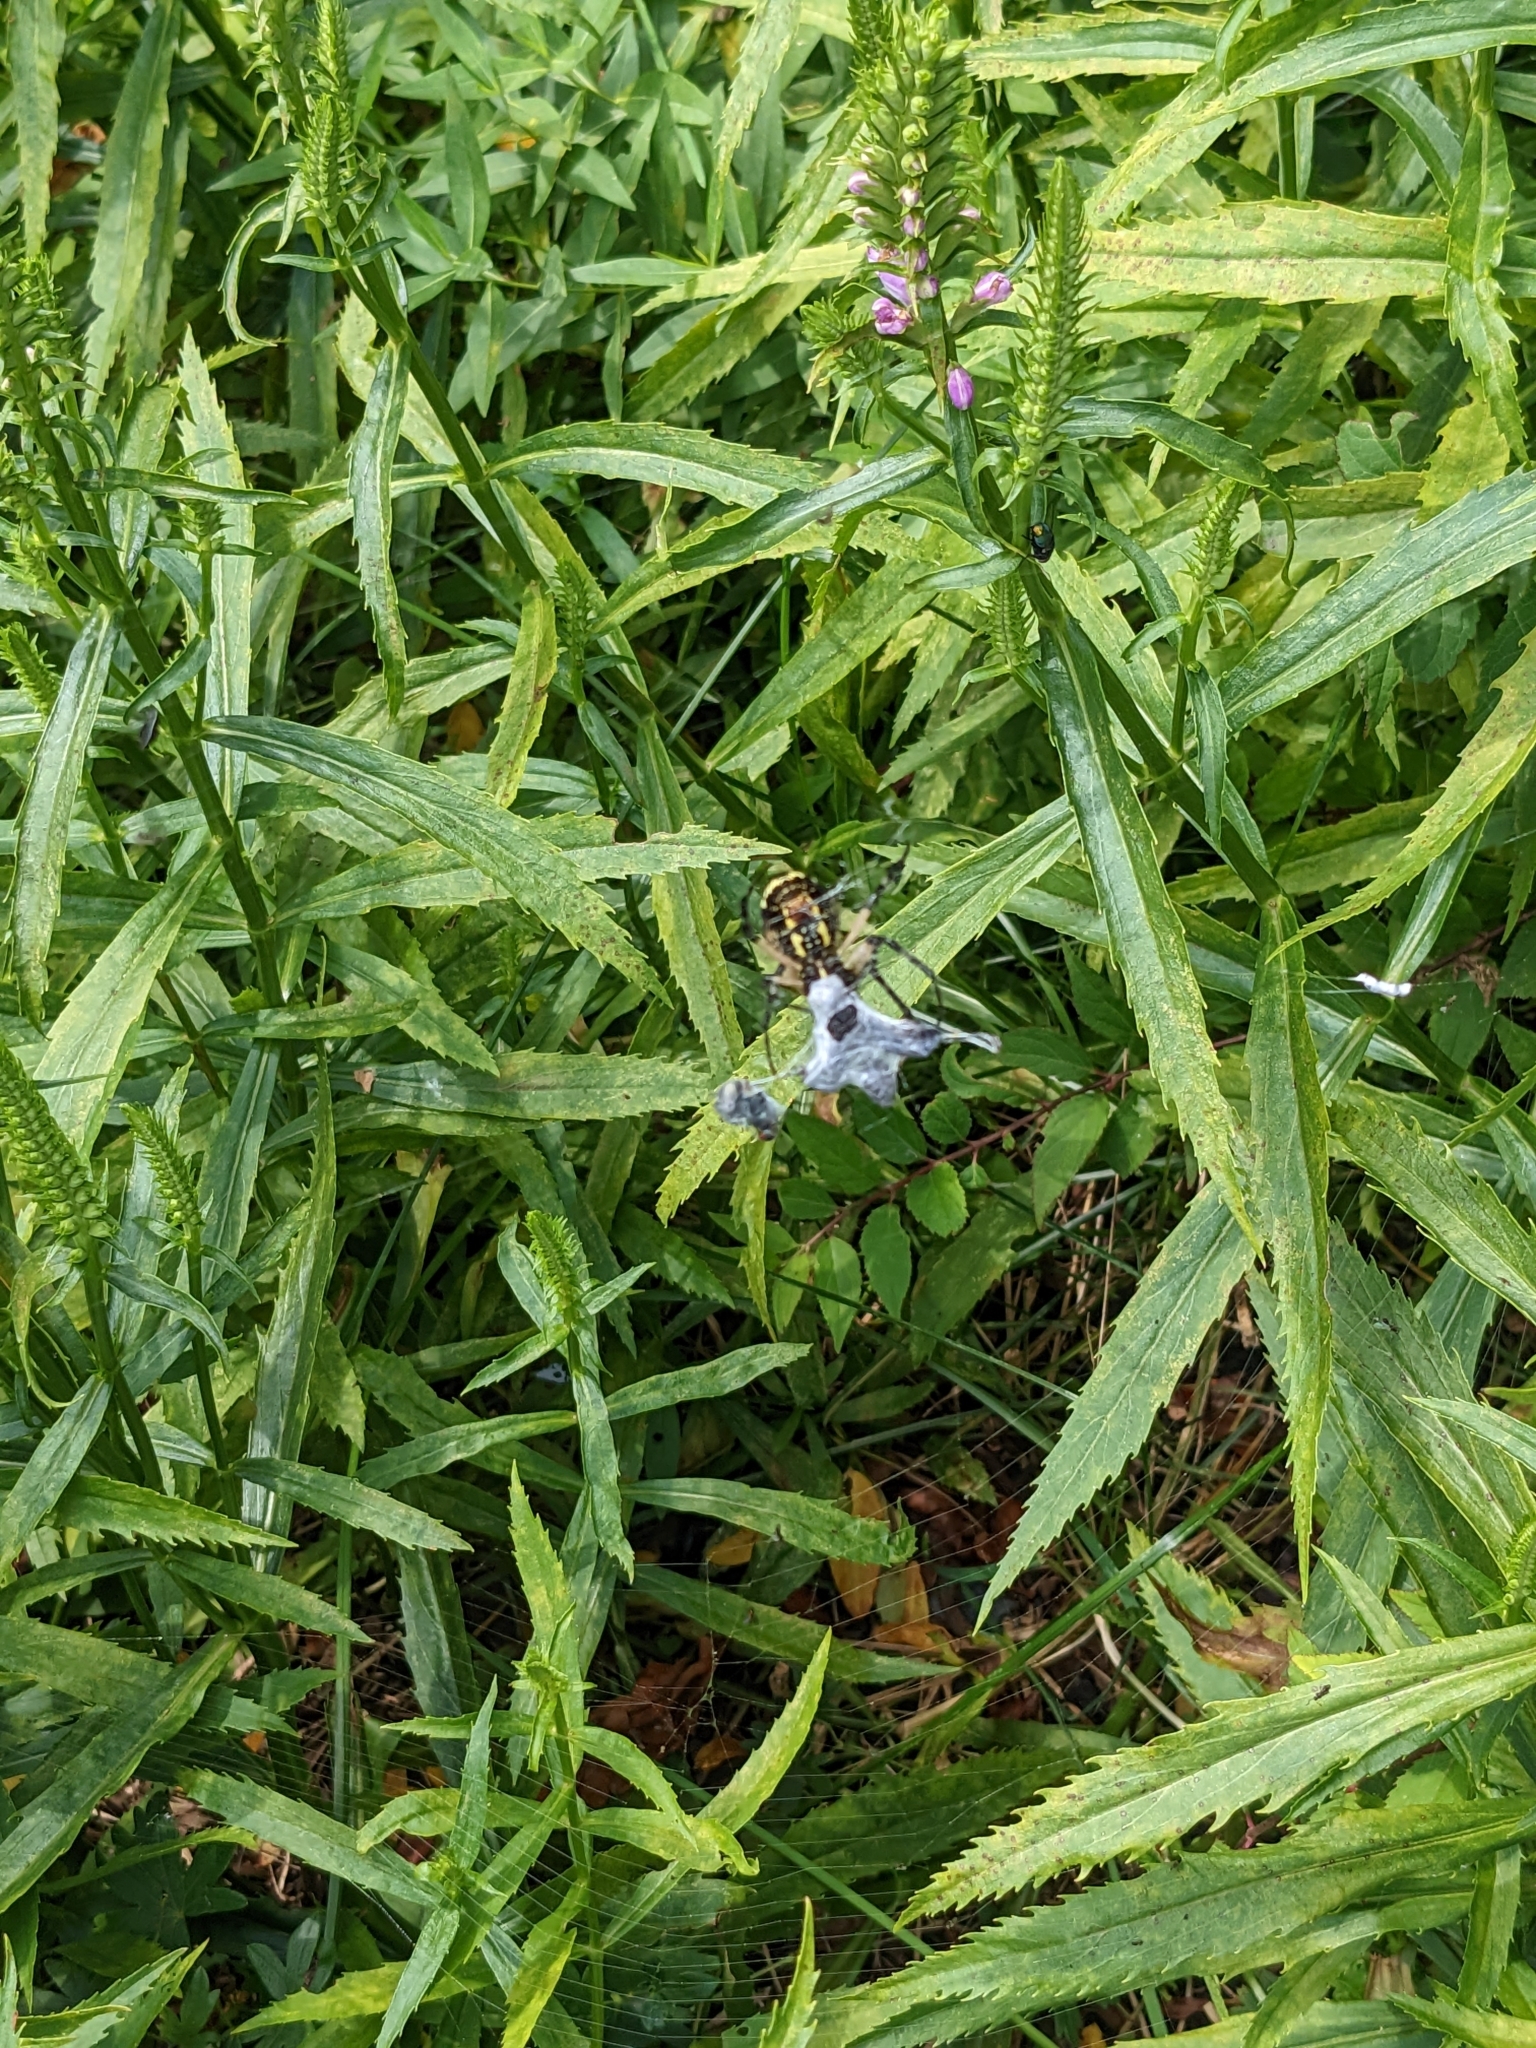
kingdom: Animalia
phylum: Arthropoda
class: Arachnida
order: Araneae
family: Araneidae
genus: Argiope
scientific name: Argiope aurantia
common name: Orb weavers
